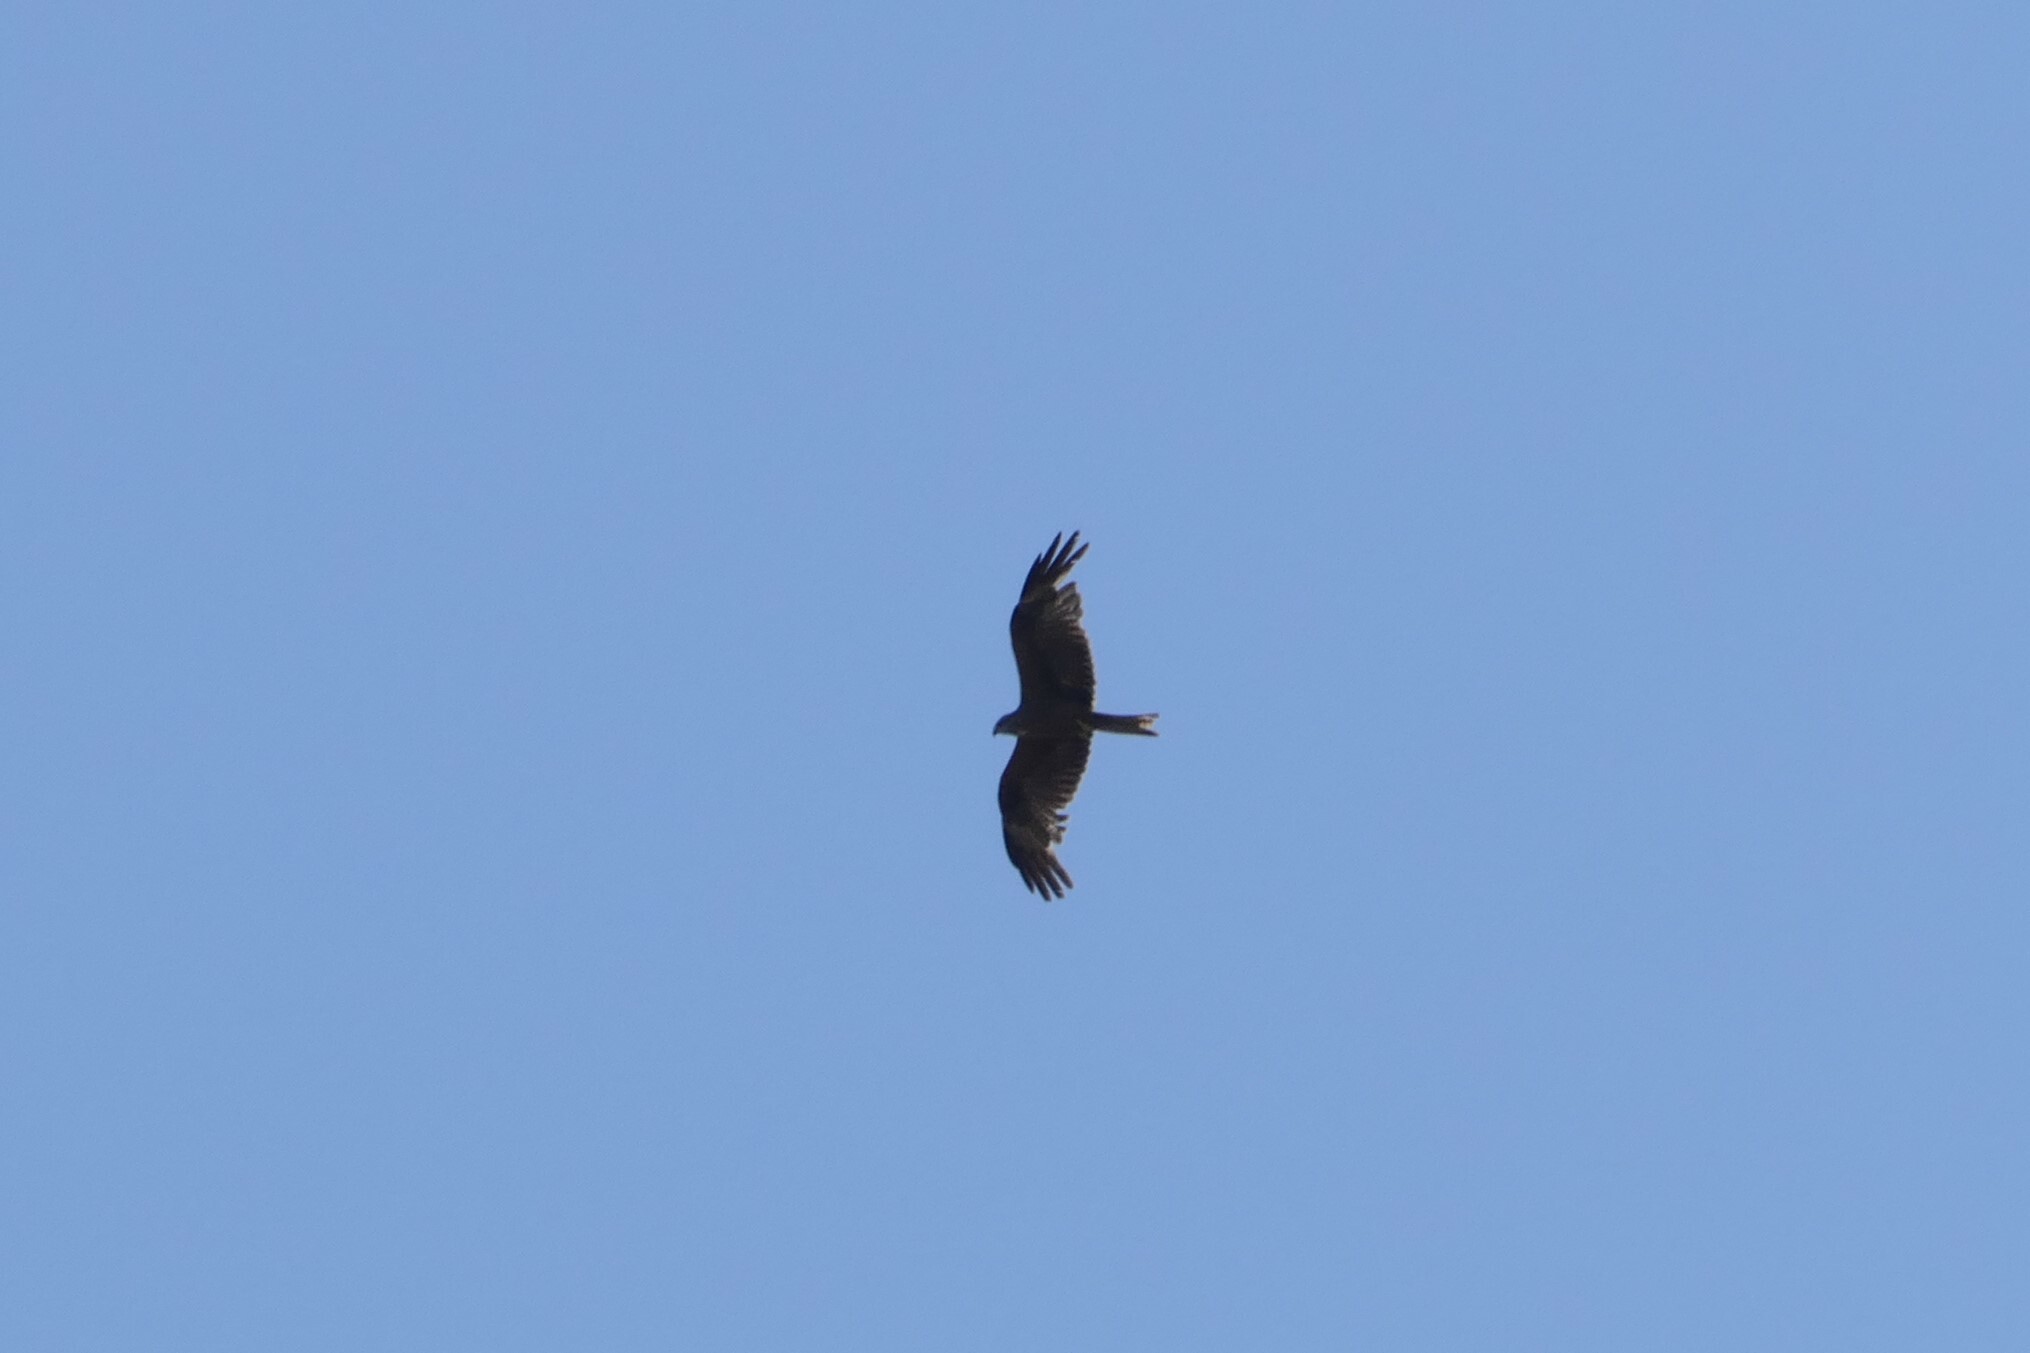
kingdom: Animalia
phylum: Chordata
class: Aves
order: Accipitriformes
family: Accipitridae
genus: Milvus
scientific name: Milvus migrans
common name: Black kite
